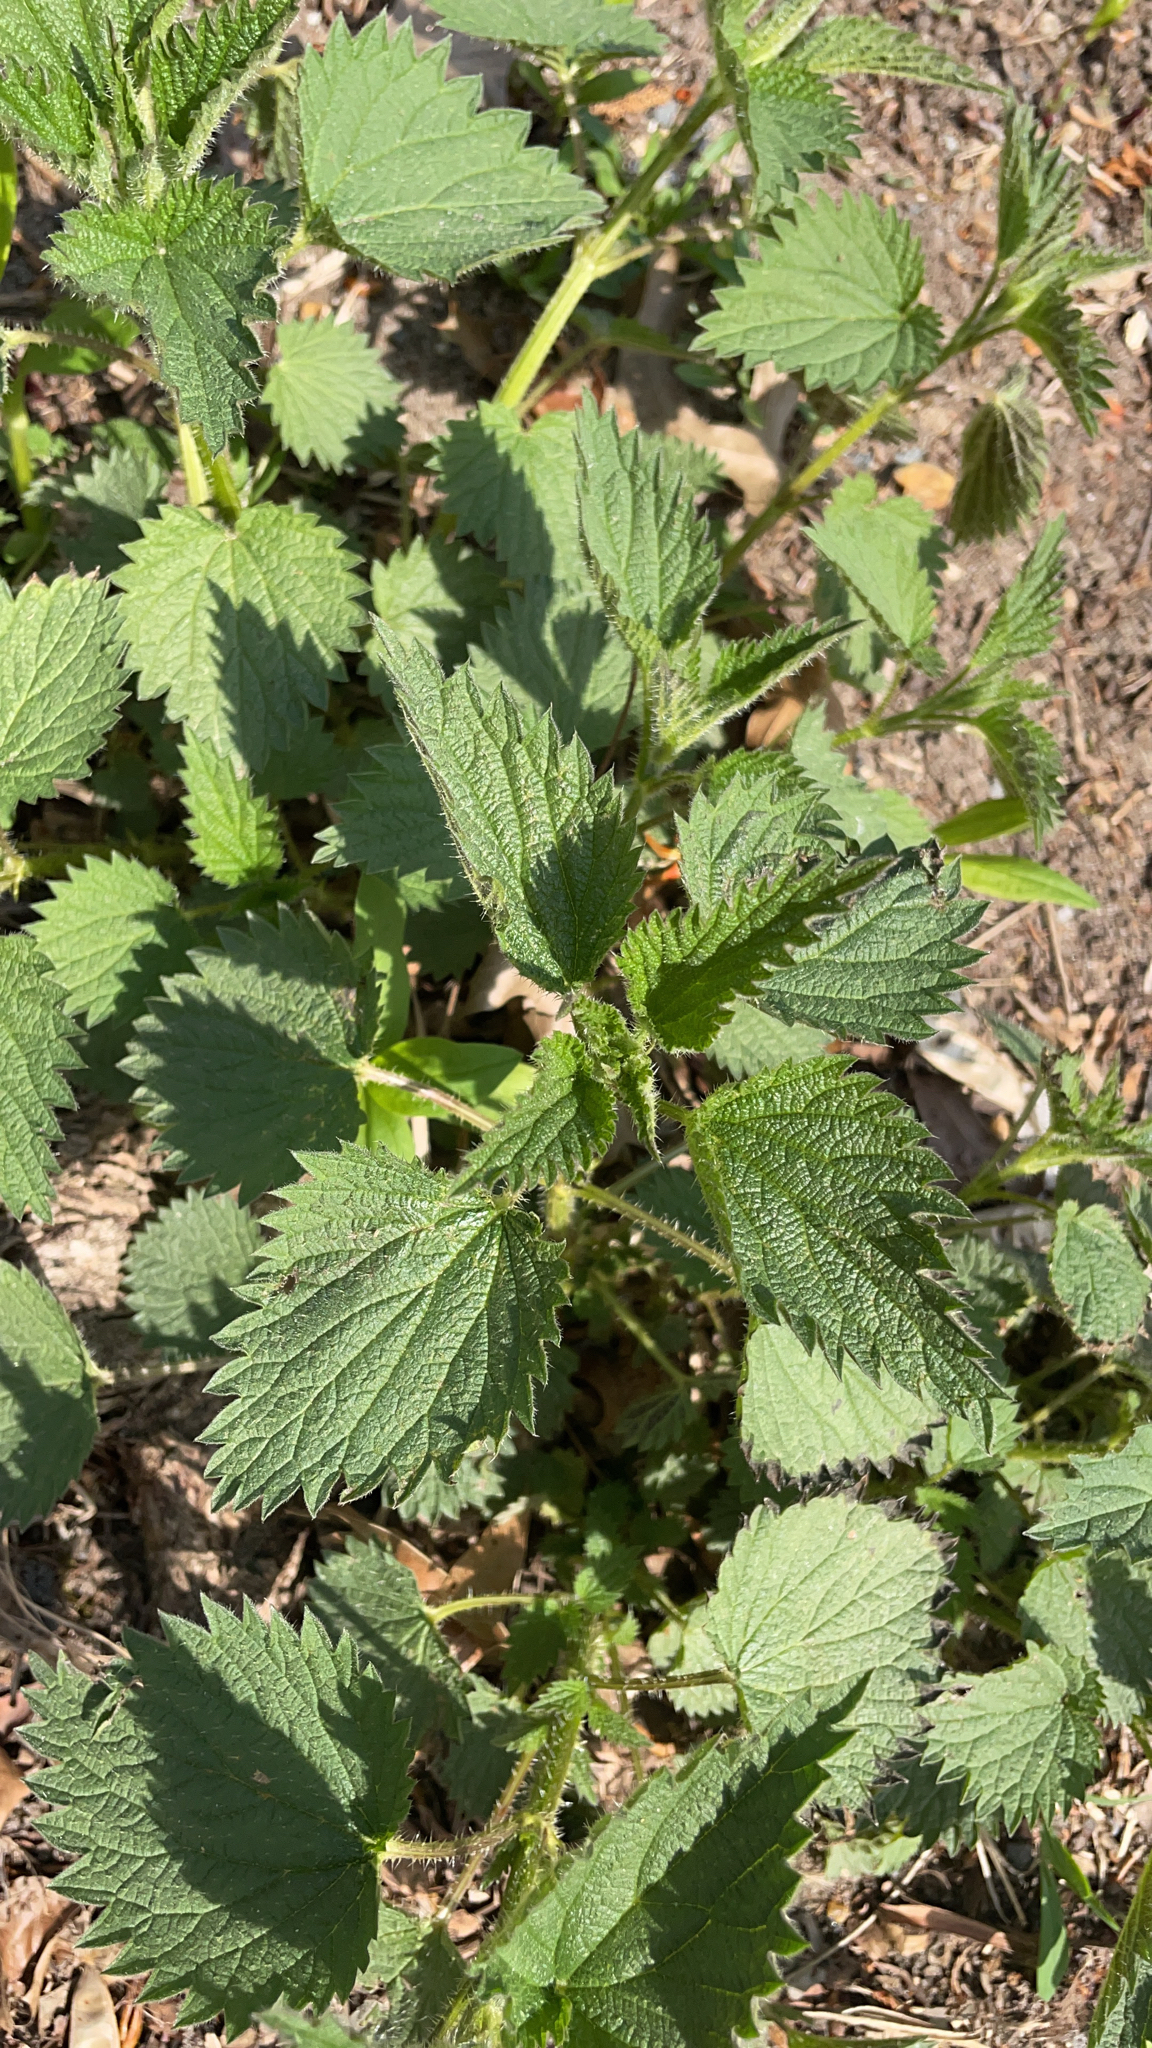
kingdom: Plantae
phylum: Tracheophyta
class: Magnoliopsida
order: Rosales
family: Urticaceae
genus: Urtica
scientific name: Urtica dioica
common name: Common nettle
